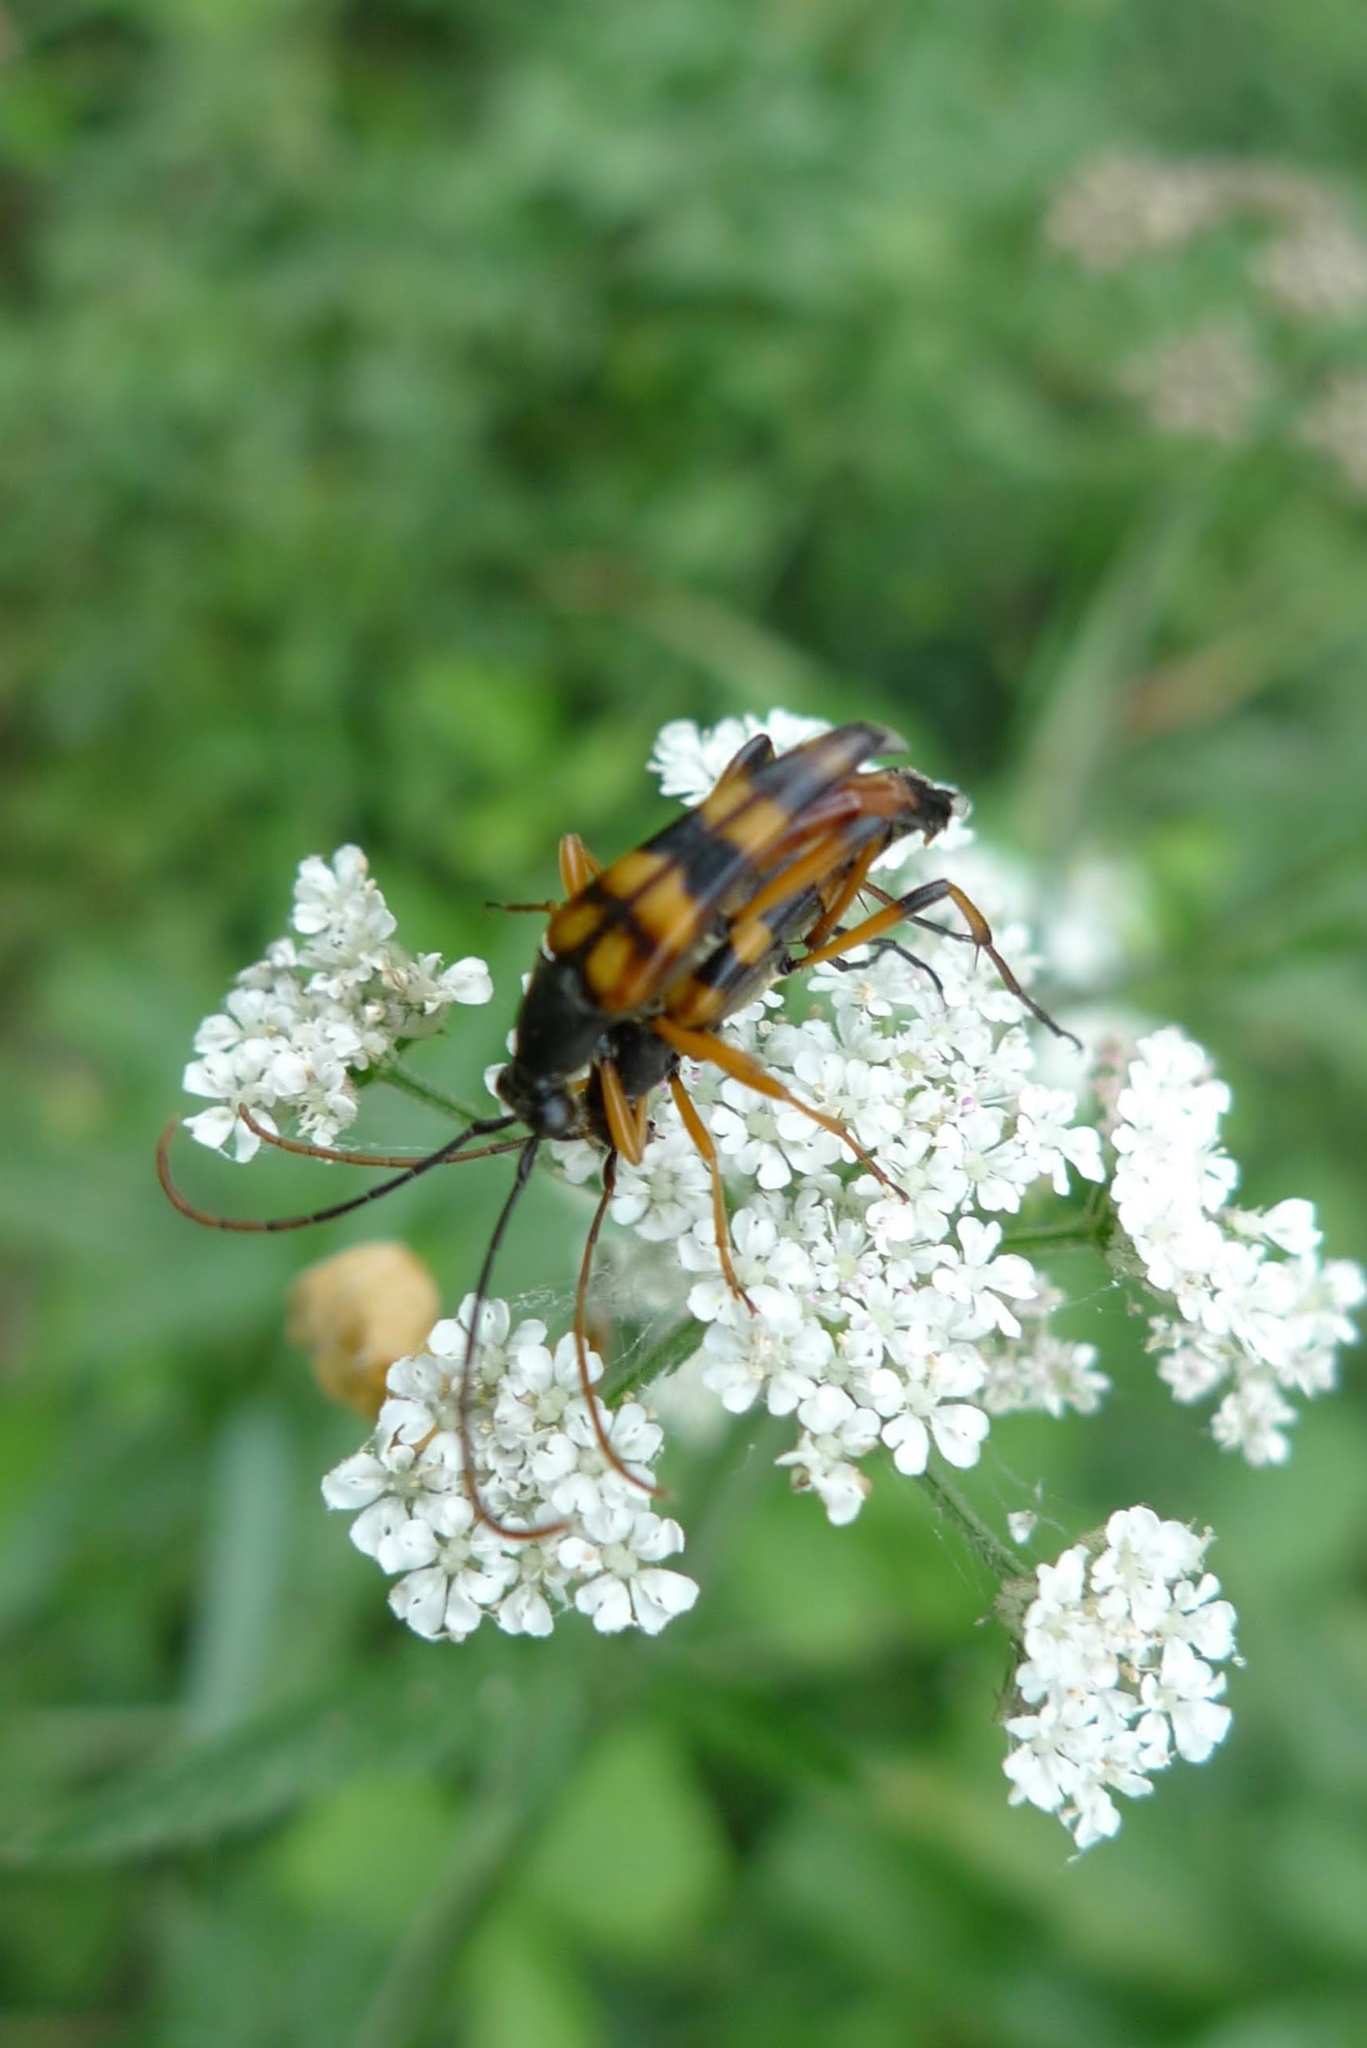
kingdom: Animalia
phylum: Arthropoda
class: Insecta
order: Coleoptera
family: Cerambycidae
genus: Strangalia
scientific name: Strangalia attenuata
